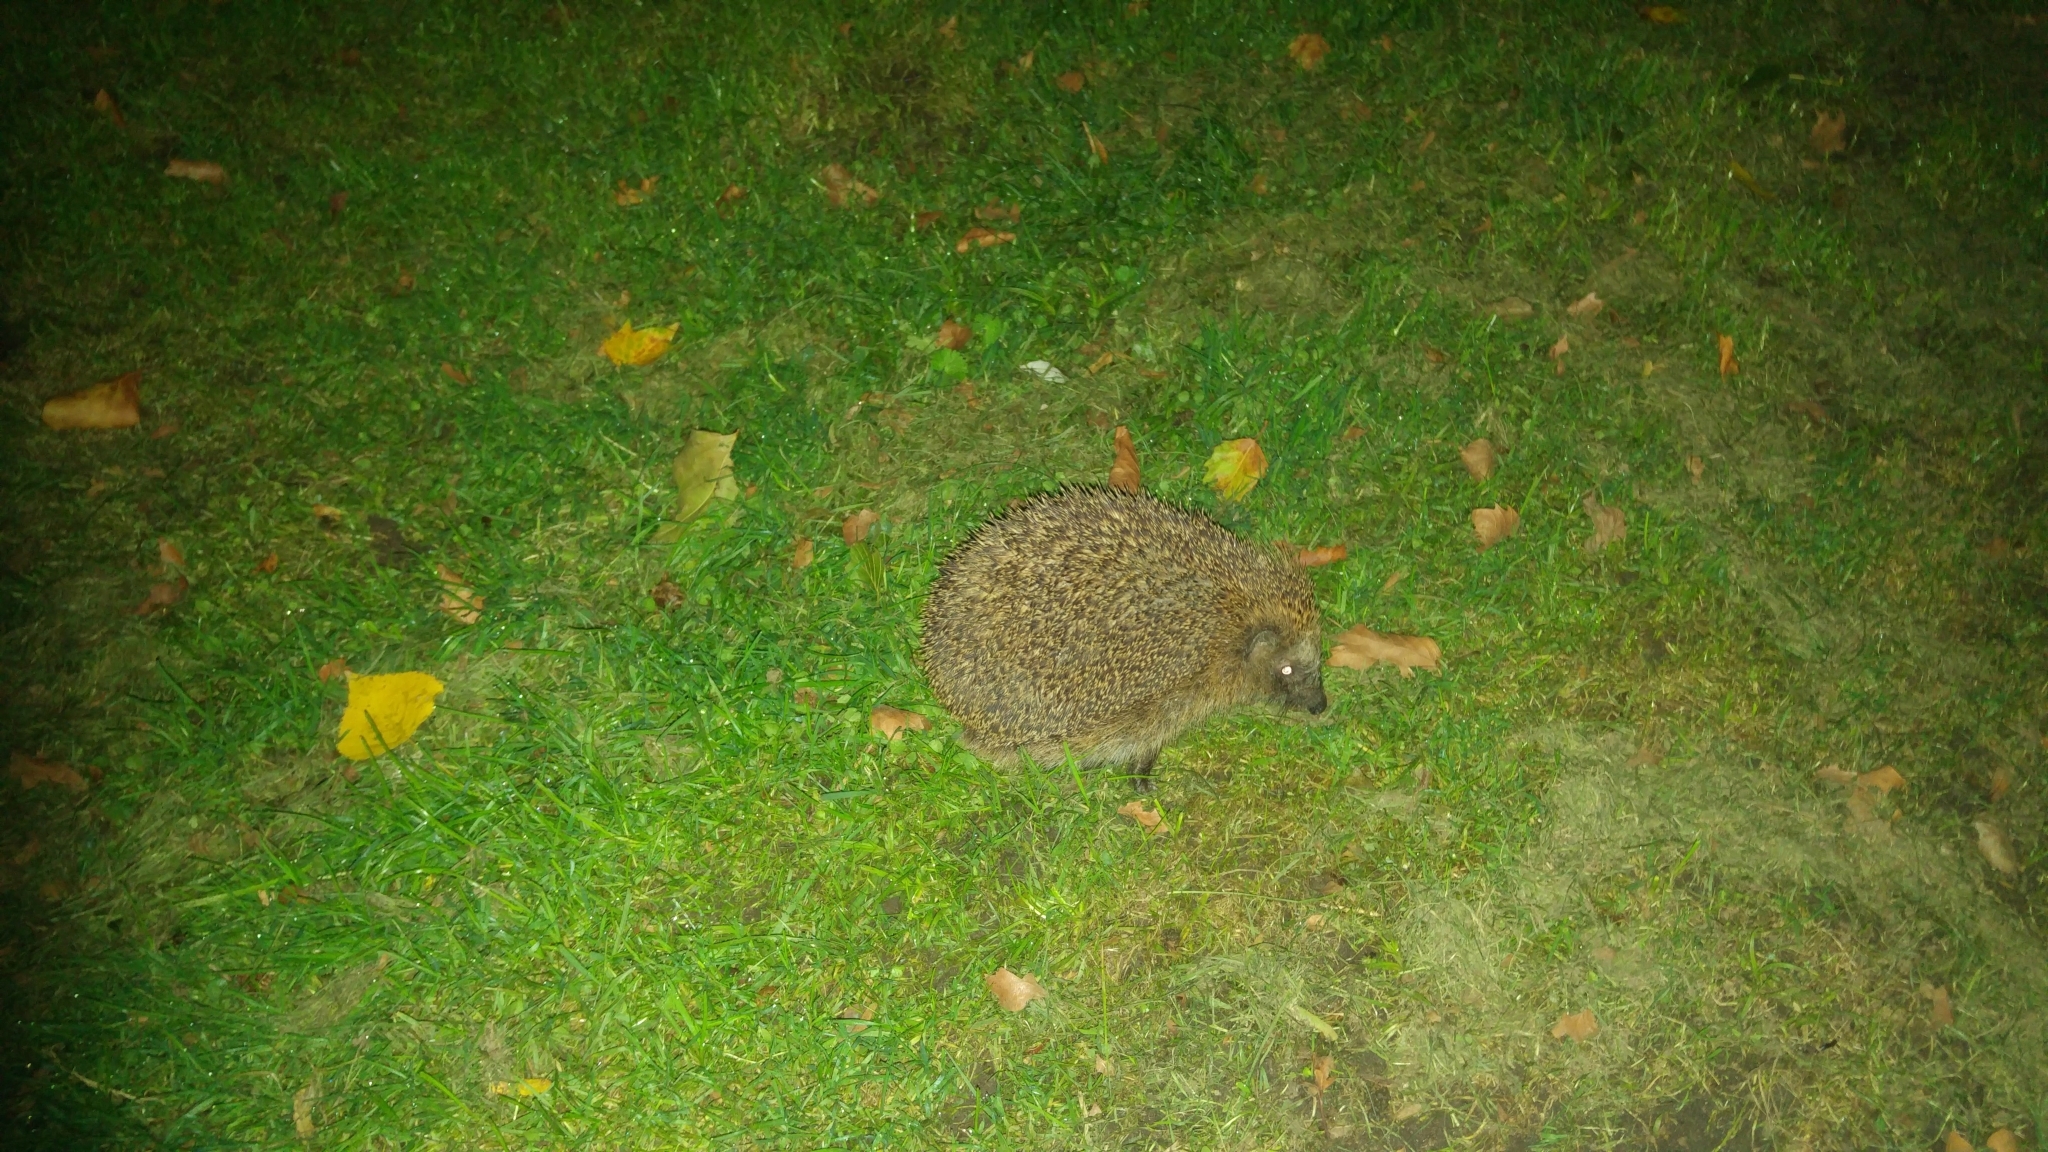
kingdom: Animalia
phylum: Chordata
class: Mammalia
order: Erinaceomorpha
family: Erinaceidae
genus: Erinaceus
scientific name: Erinaceus europaeus
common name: West european hedgehog
